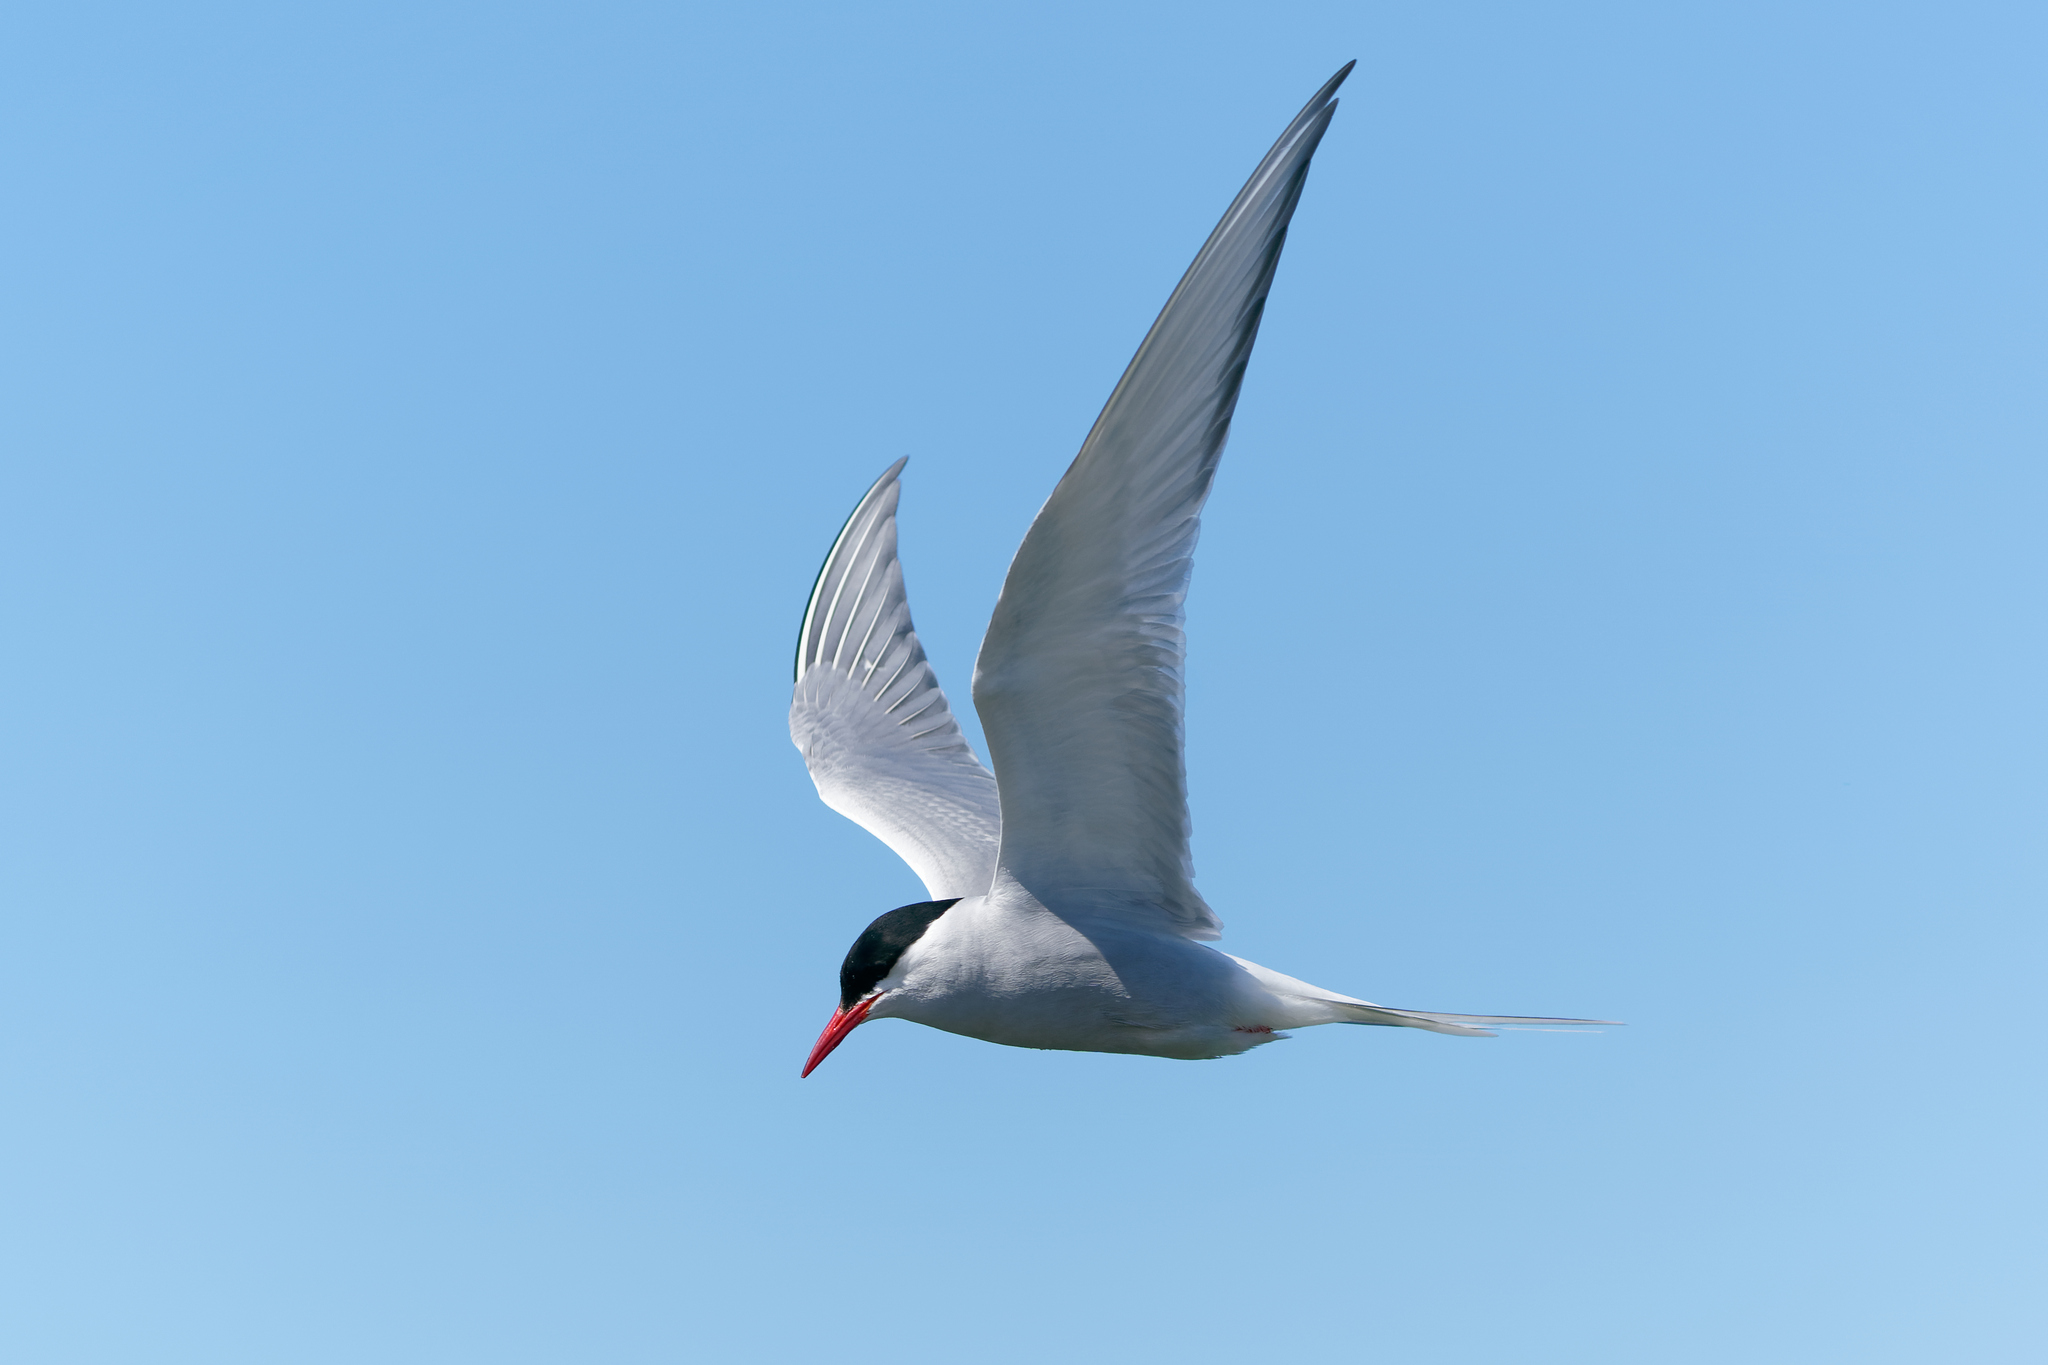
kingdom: Animalia
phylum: Chordata
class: Aves
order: Charadriiformes
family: Laridae
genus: Sterna
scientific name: Sterna paradisaea
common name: Arctic tern
